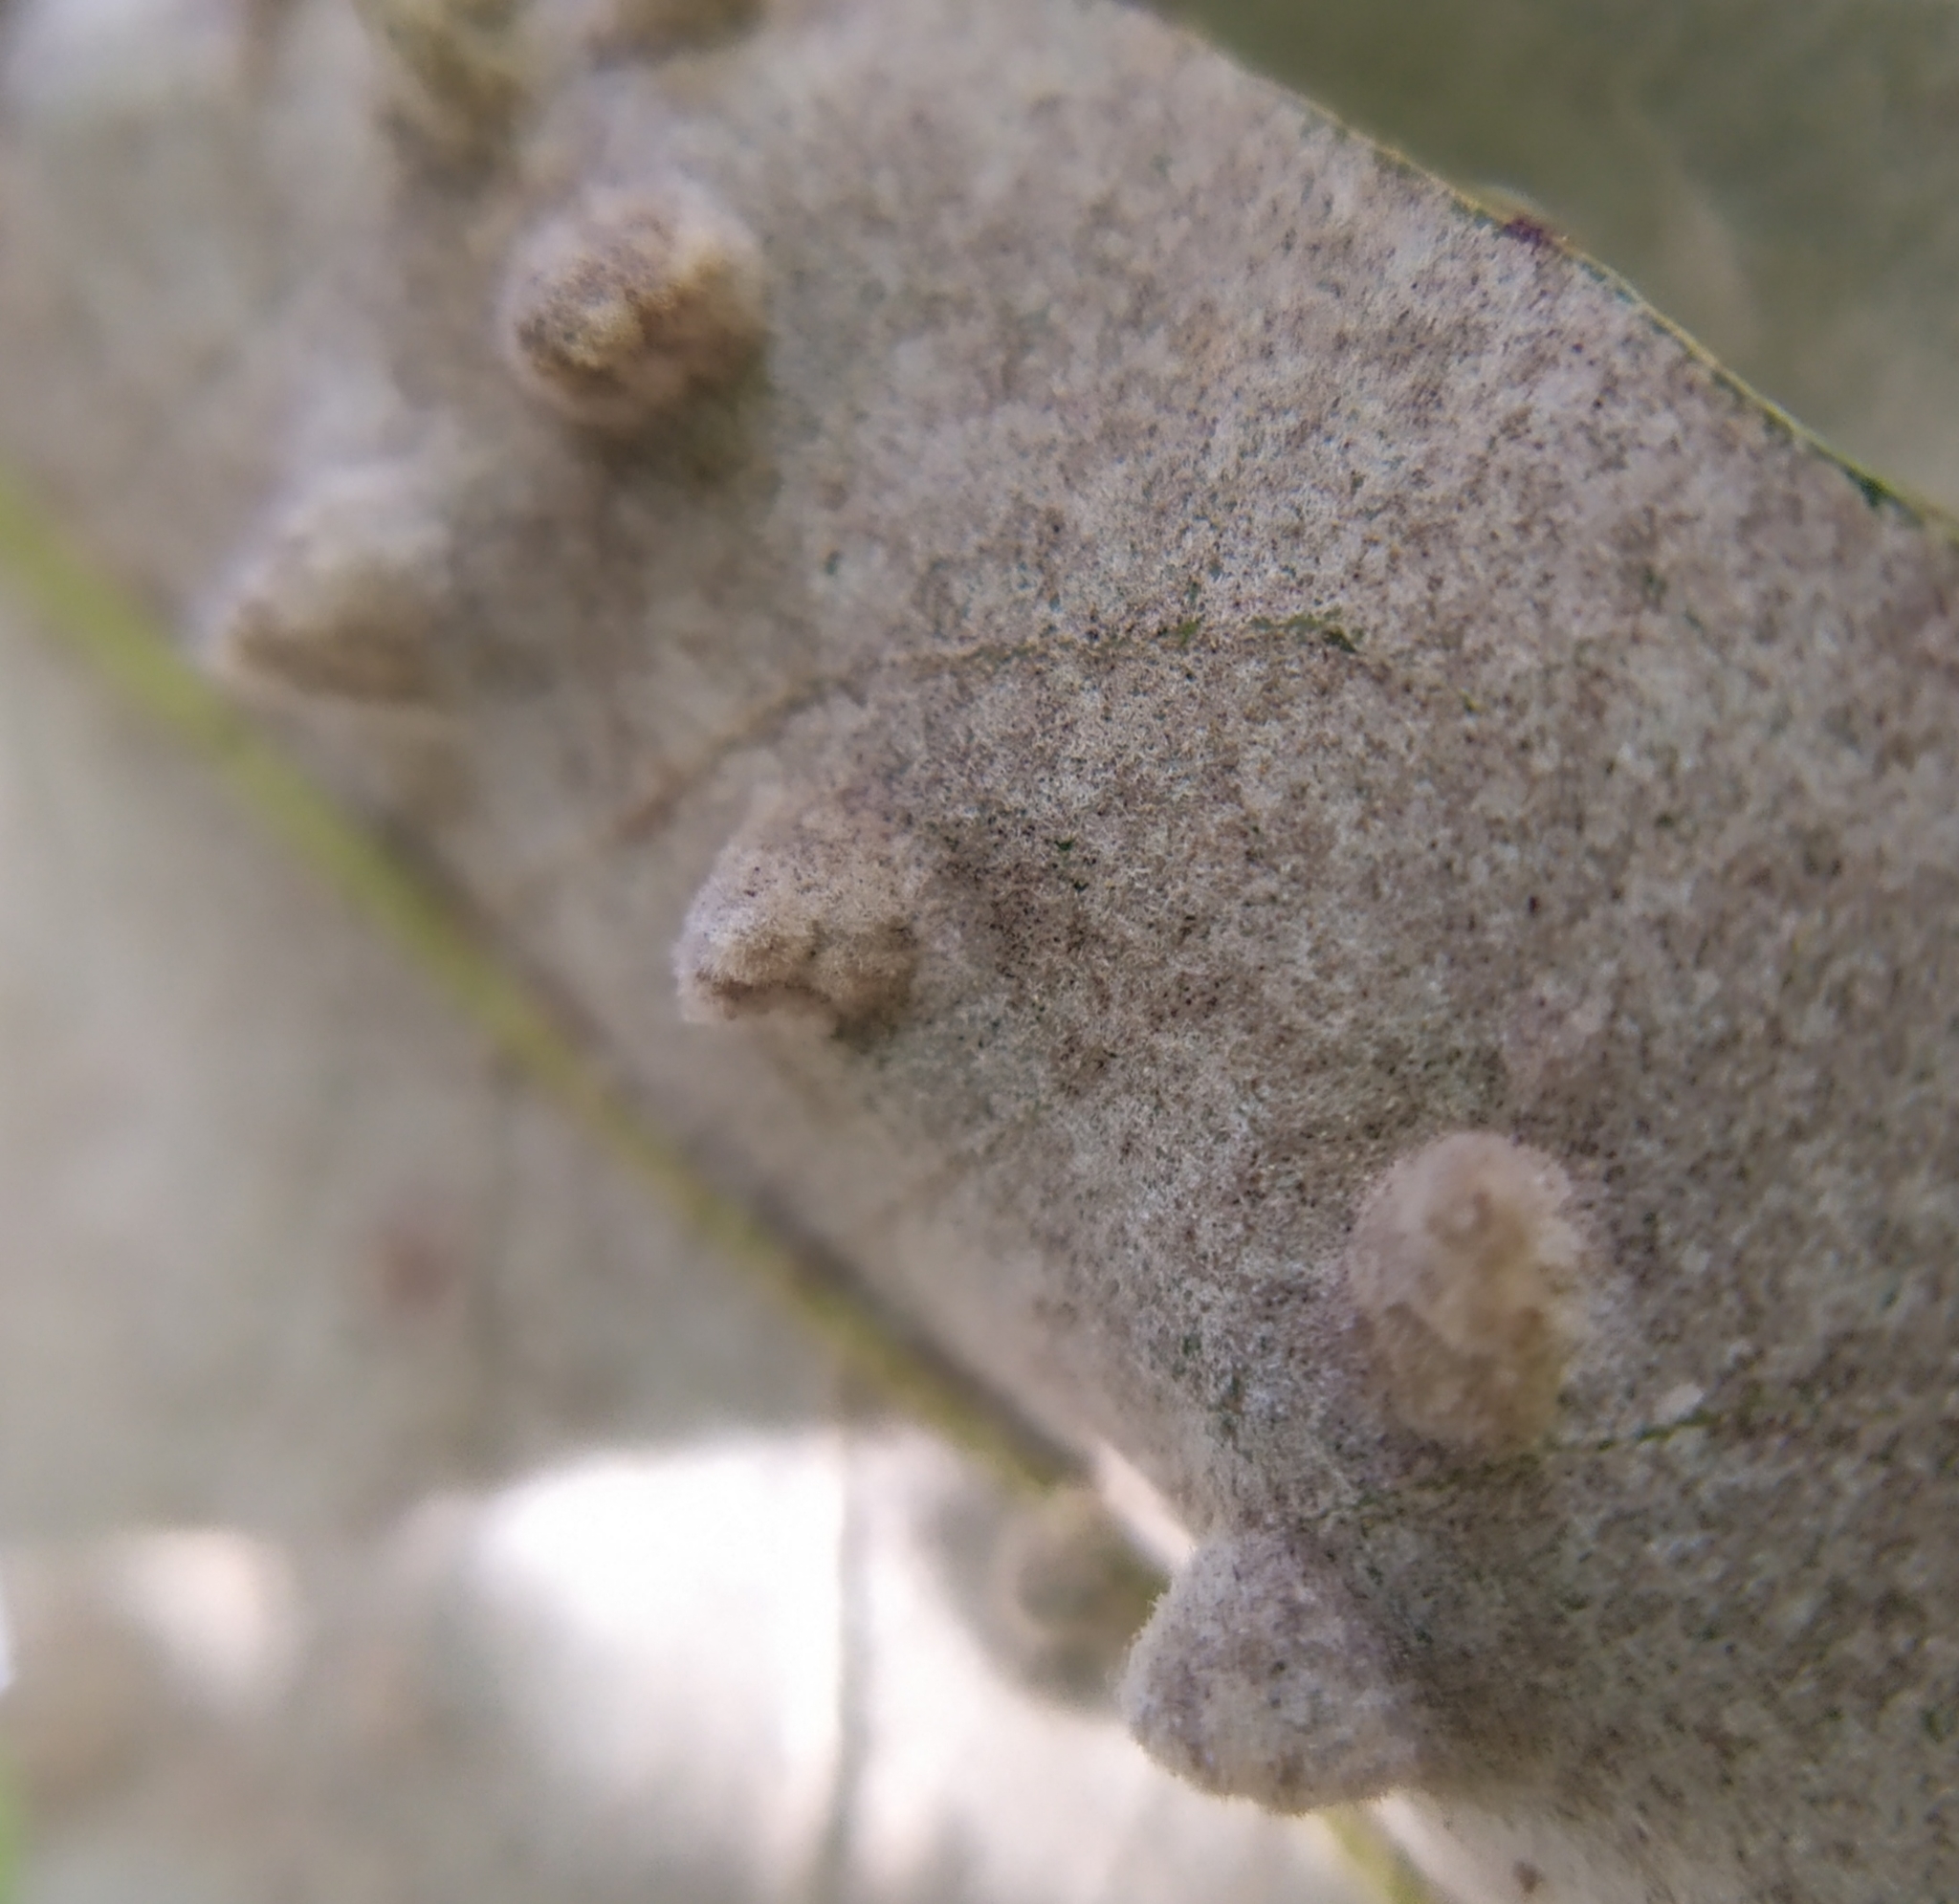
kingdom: Animalia
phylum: Arthropoda
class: Insecta
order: Diptera
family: Cecidomyiidae
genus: Dryomyia
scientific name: Dryomyia lichtensteinii
